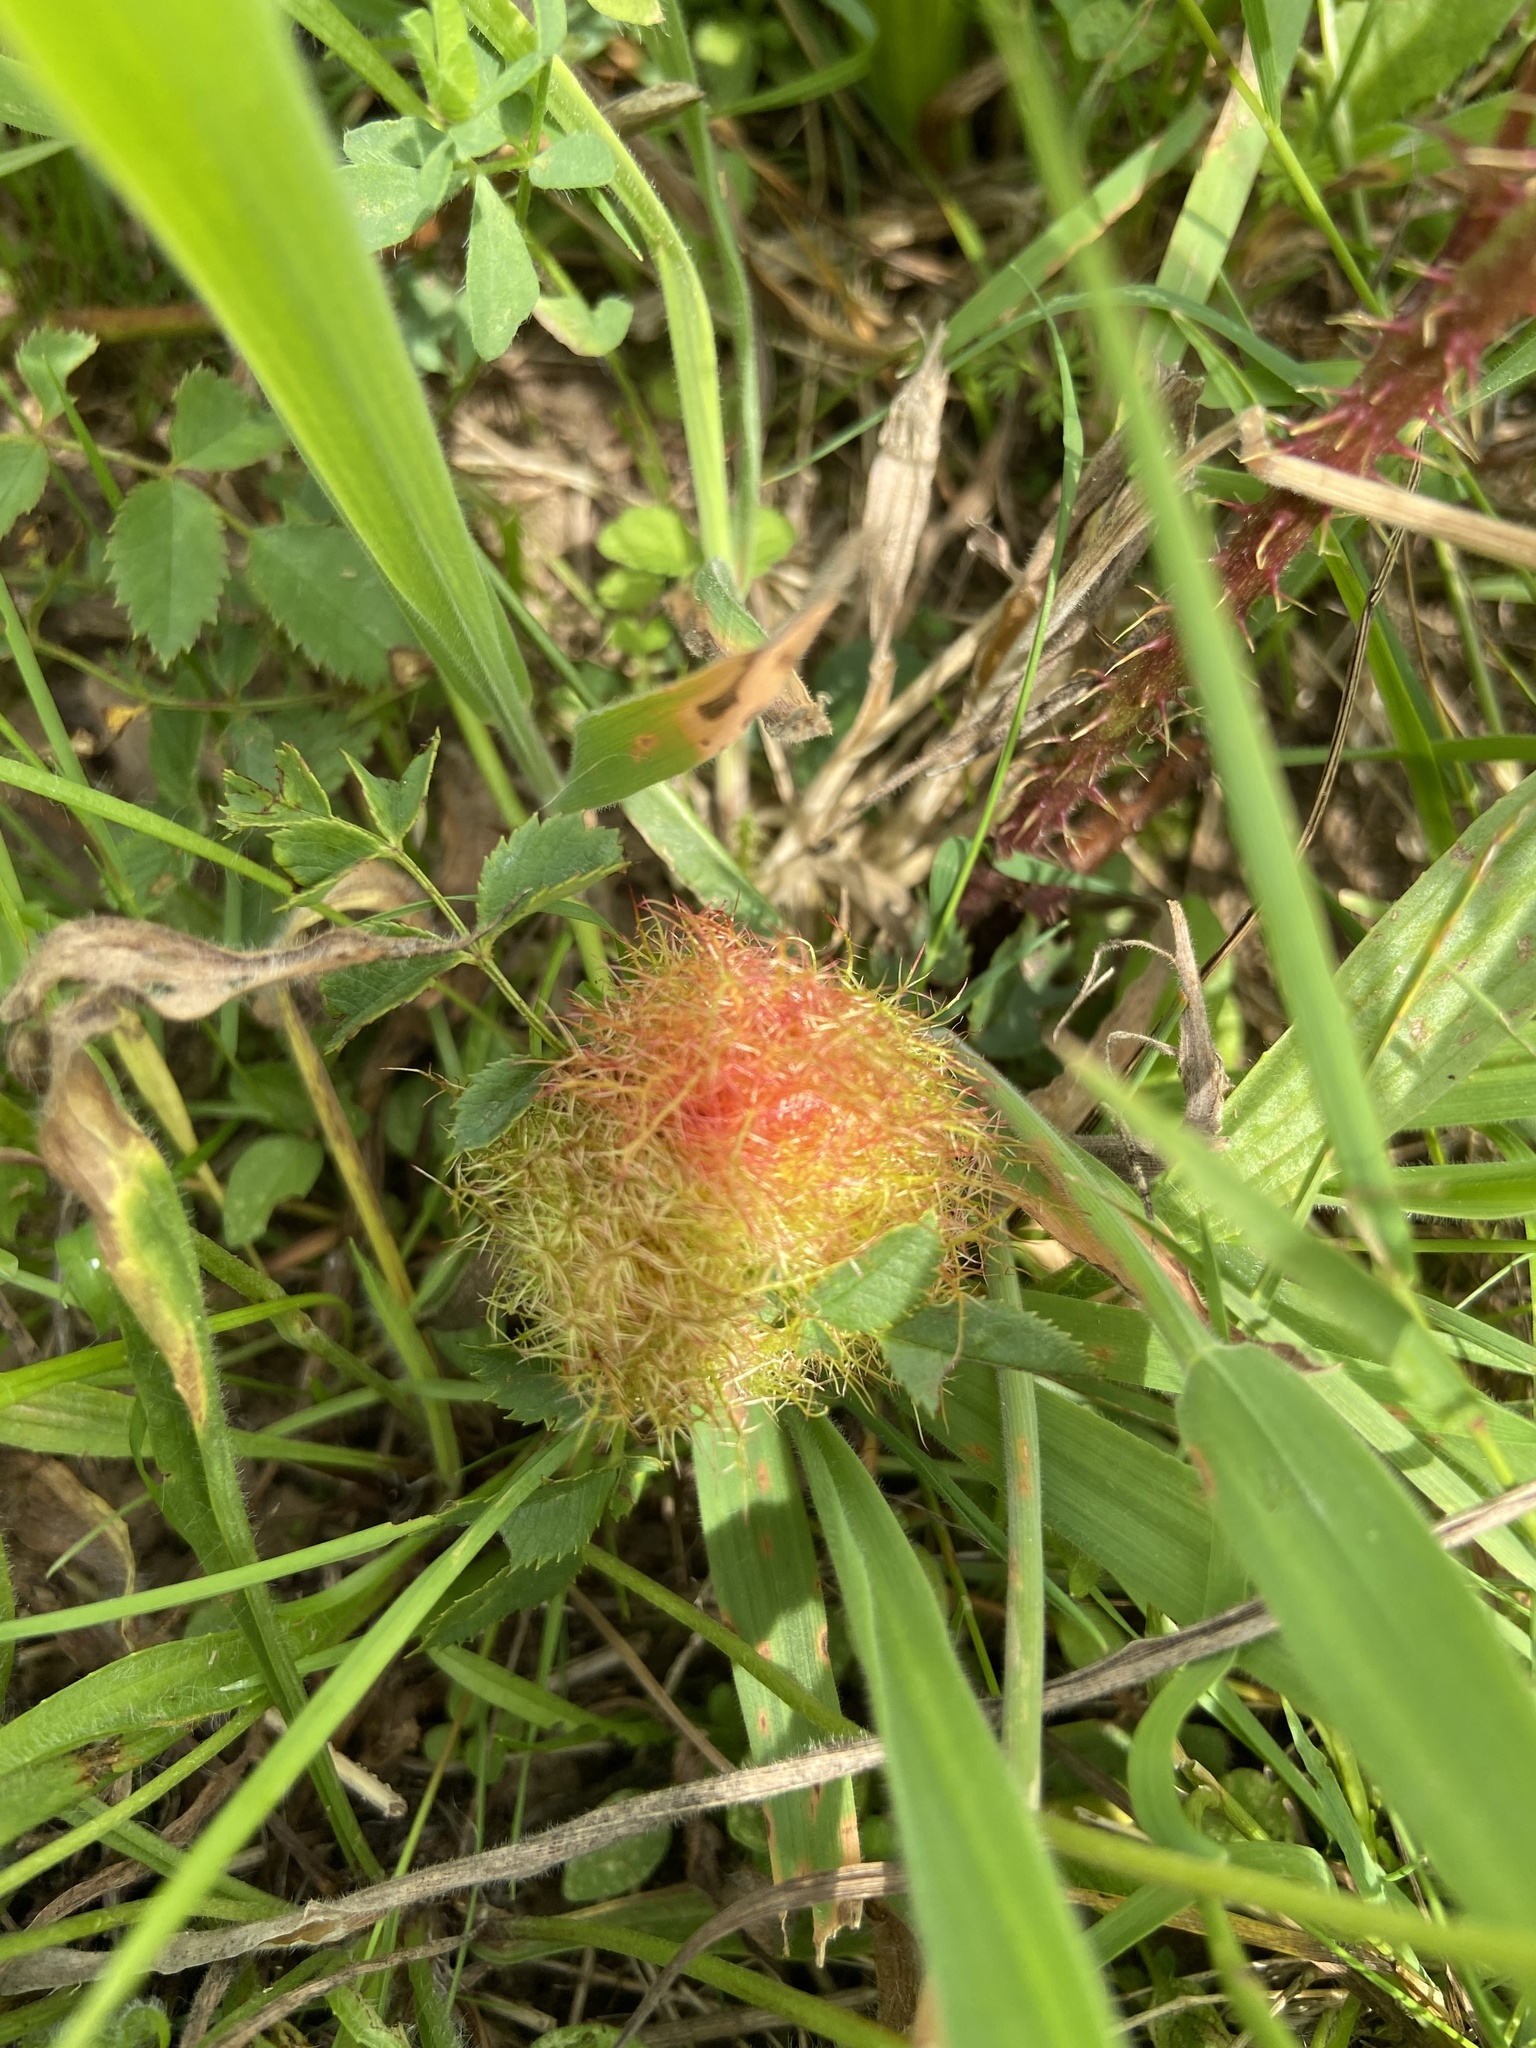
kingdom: Animalia
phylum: Arthropoda
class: Insecta
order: Hymenoptera
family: Cynipidae
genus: Diplolepis
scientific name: Diplolepis rosae
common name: Bedeguar gall
